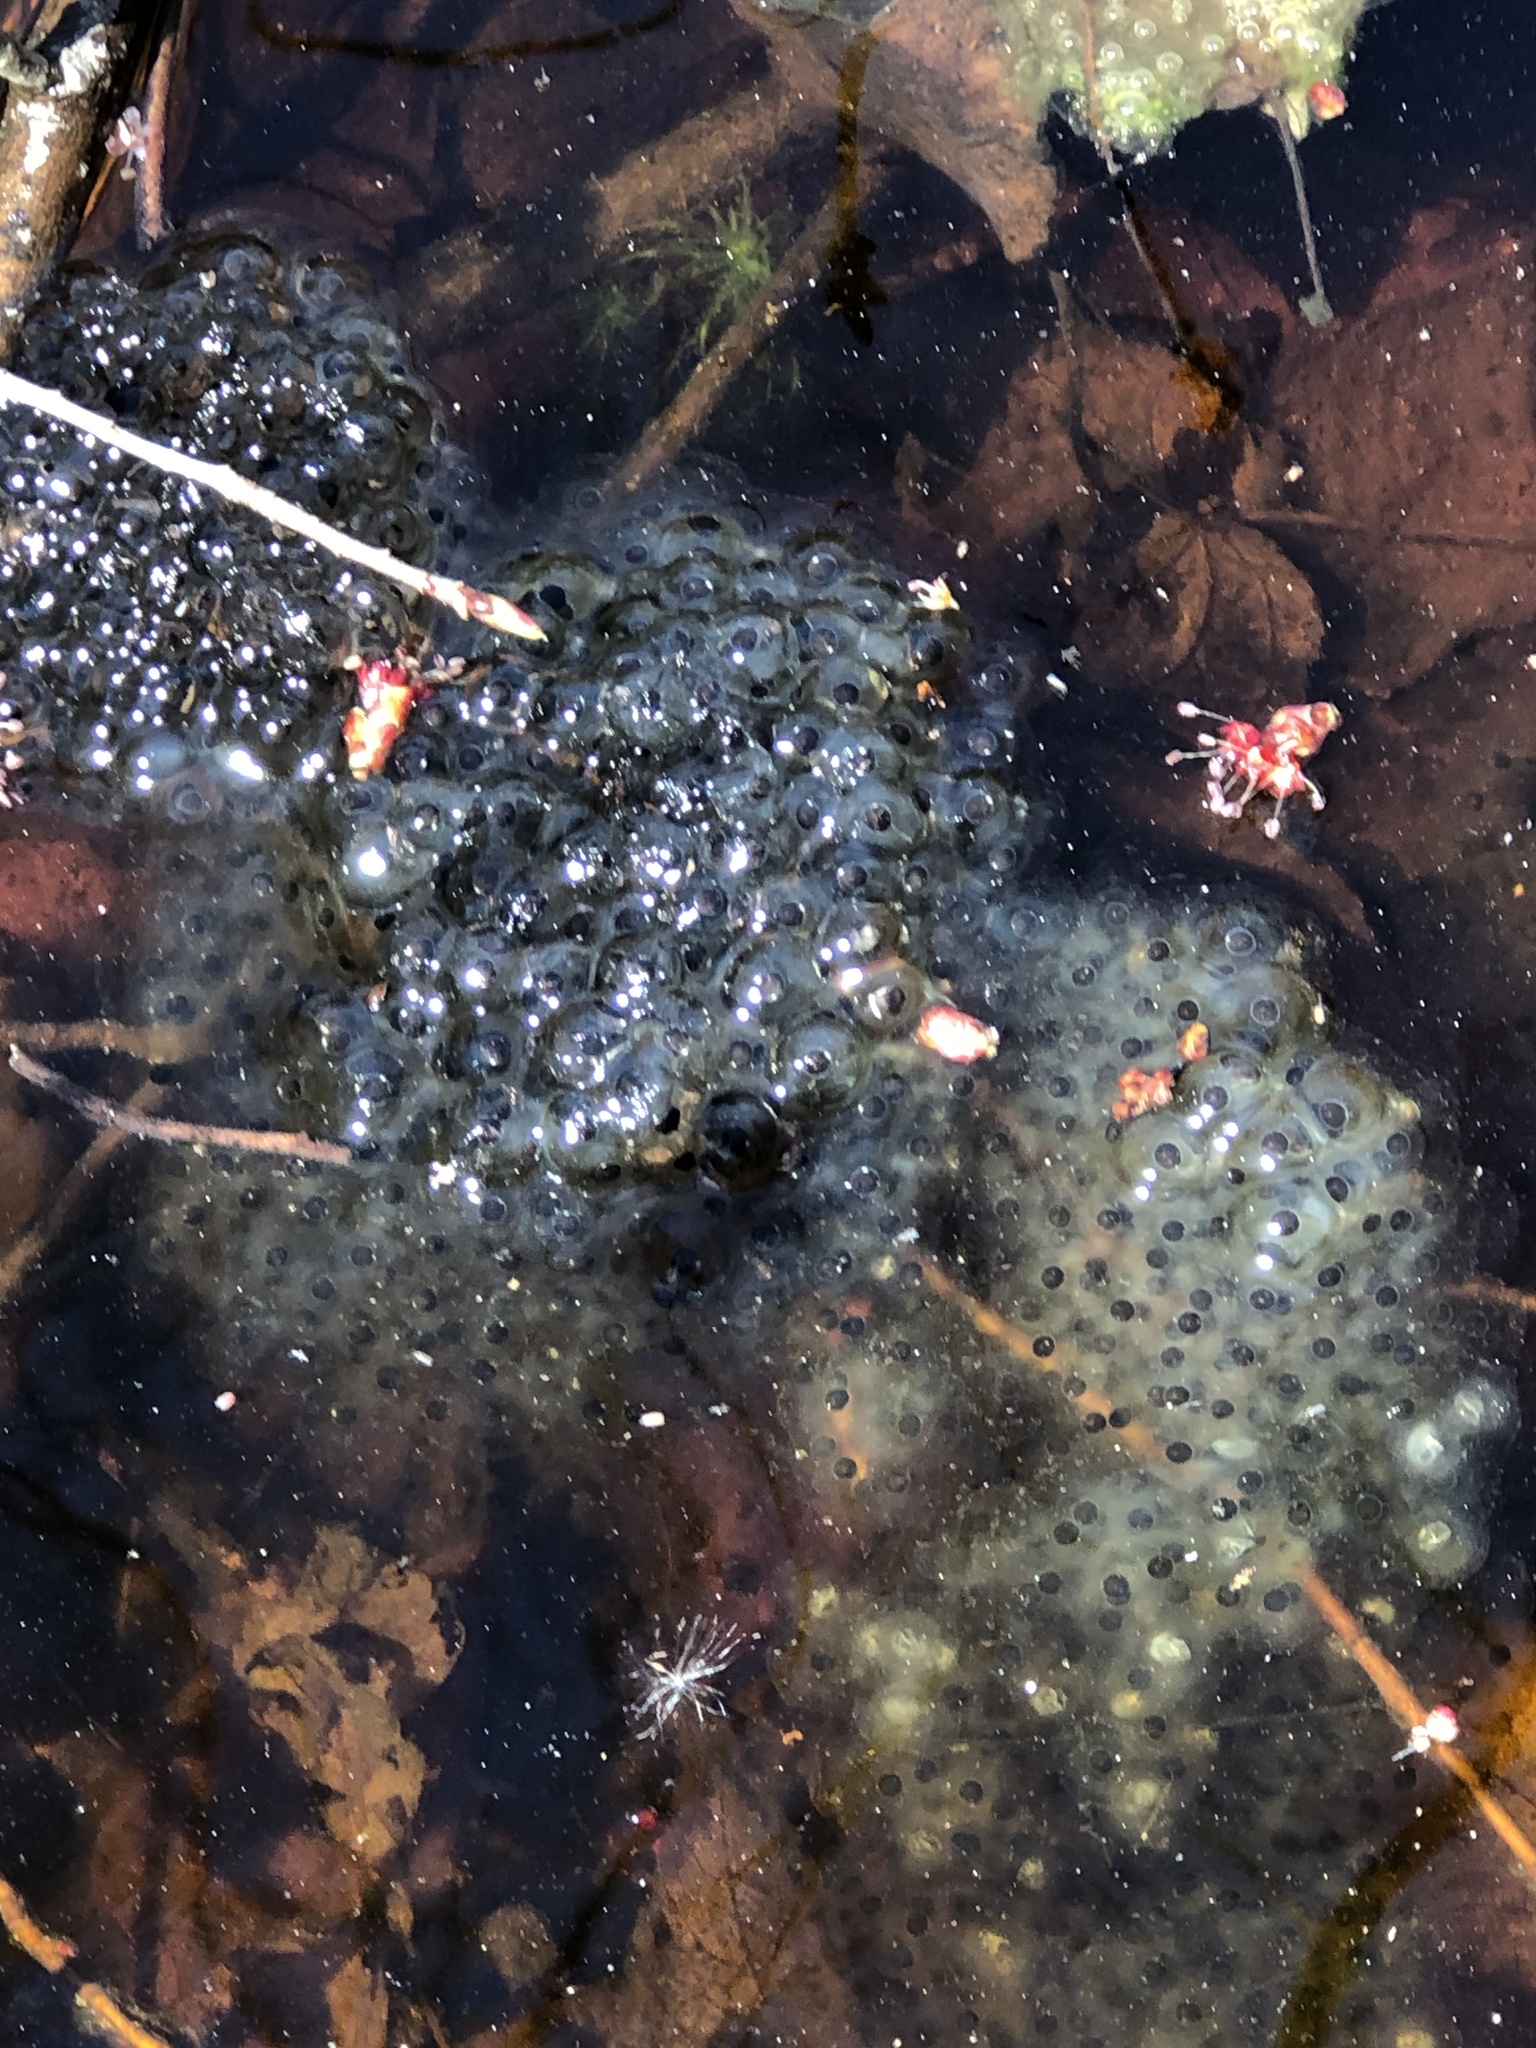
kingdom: Animalia
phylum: Chordata
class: Amphibia
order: Anura
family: Ranidae
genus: Lithobates
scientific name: Lithobates sylvaticus
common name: Wood frog
